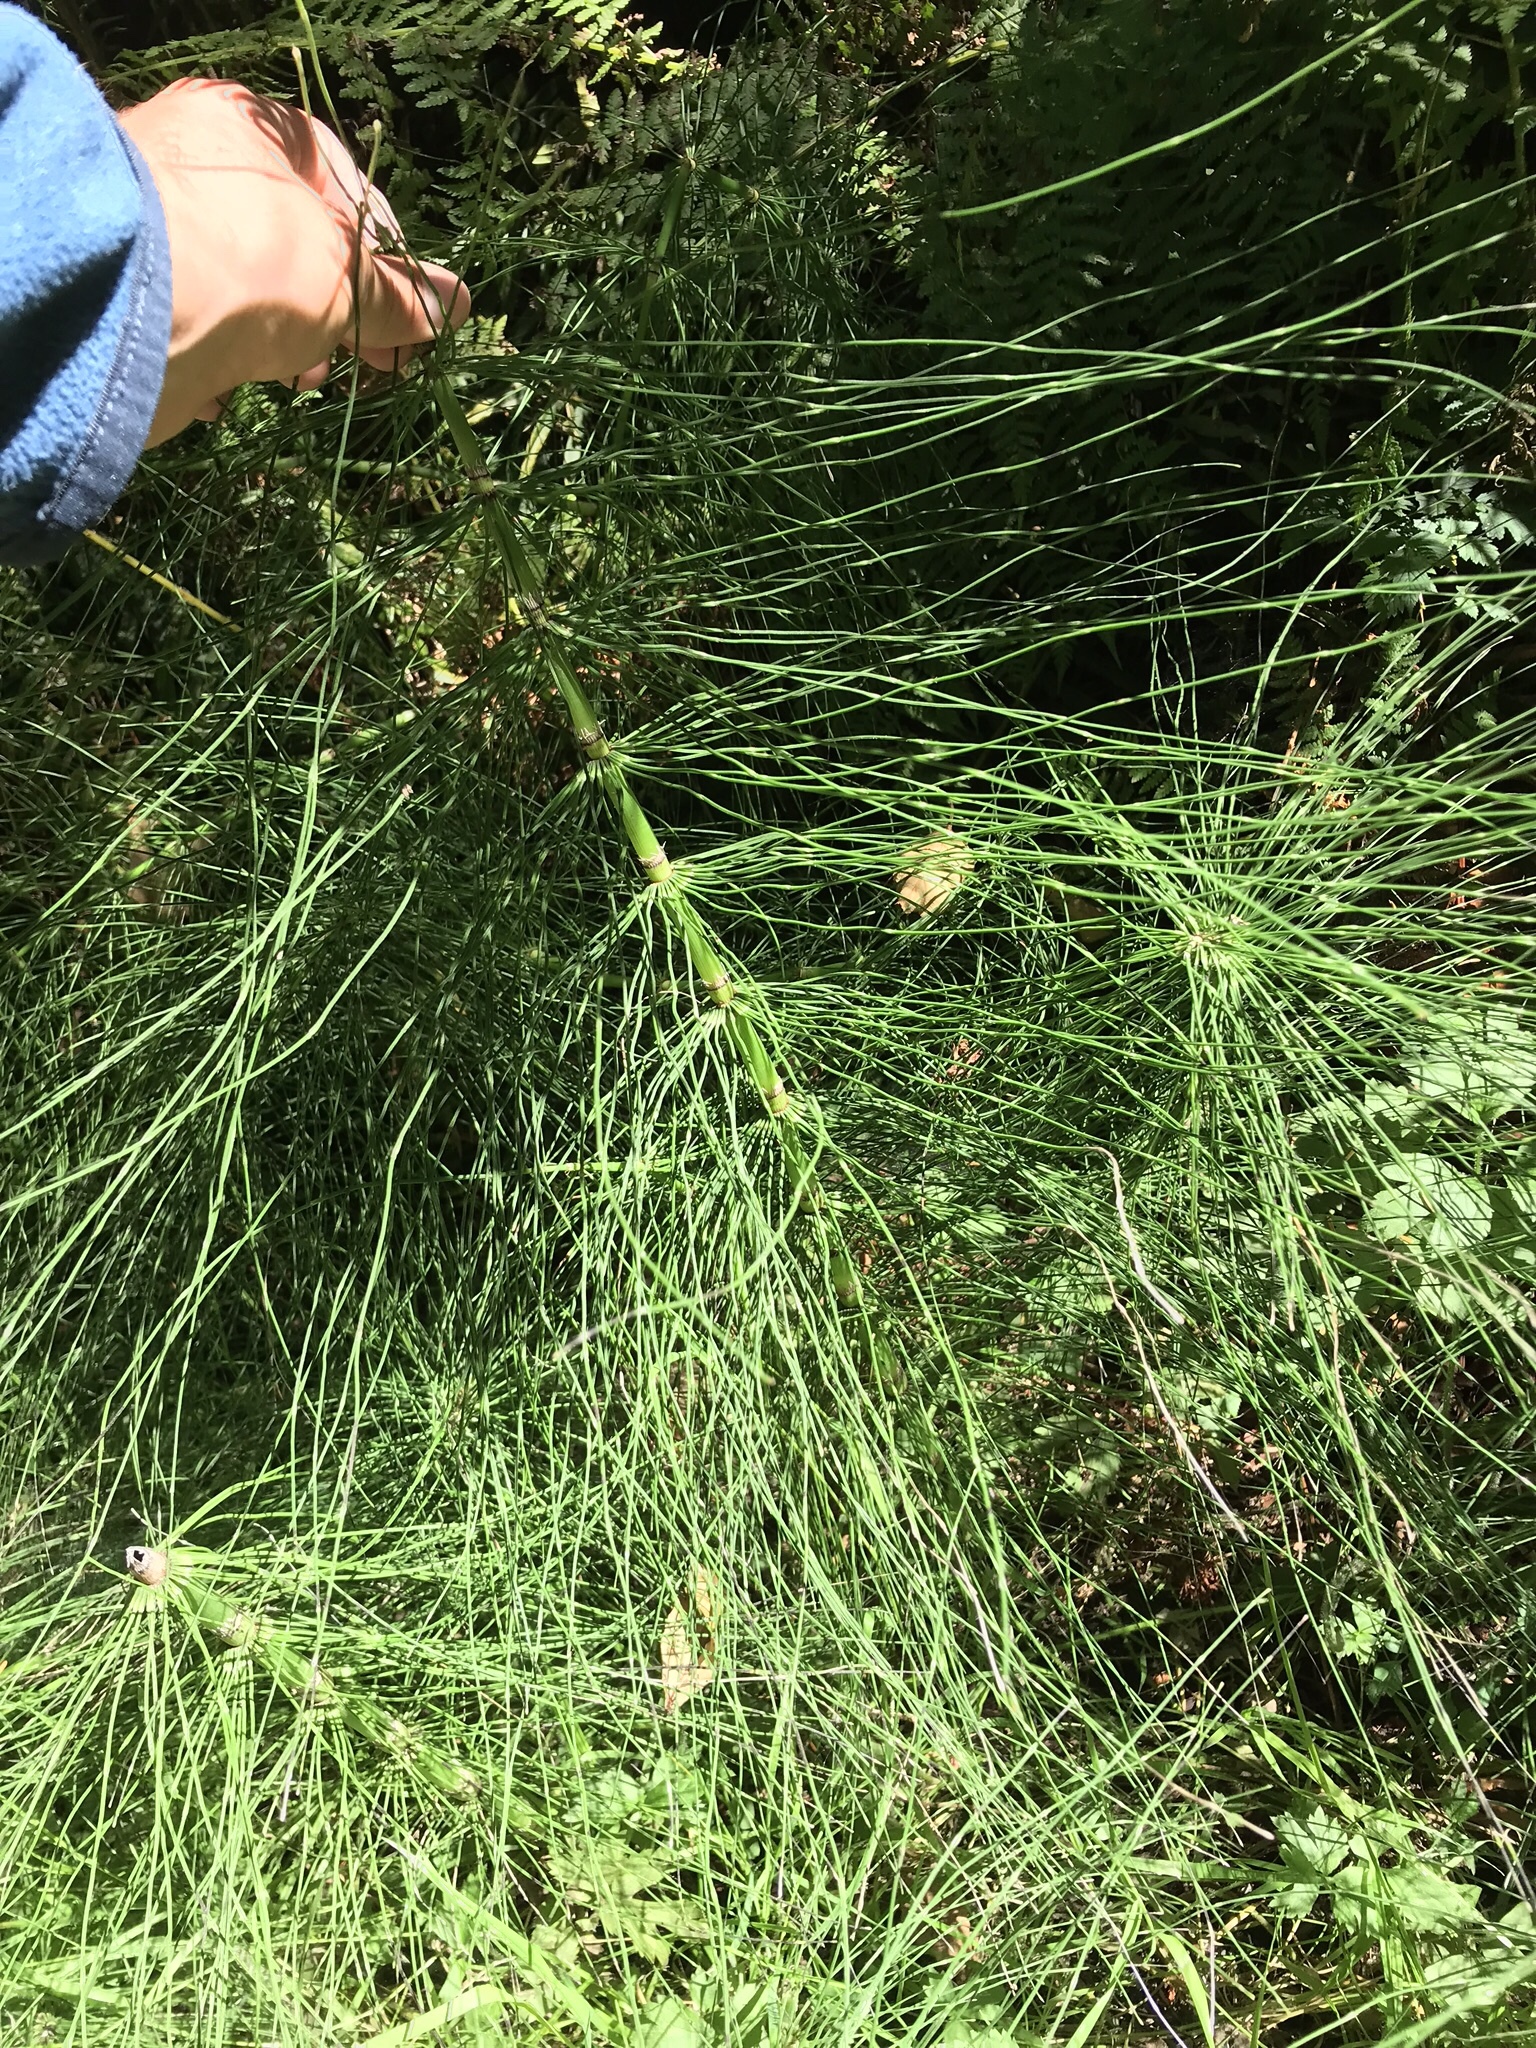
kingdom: Plantae
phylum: Tracheophyta
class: Polypodiopsida
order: Equisetales
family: Equisetaceae
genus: Equisetum
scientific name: Equisetum braunii
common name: Braun's horsetail
